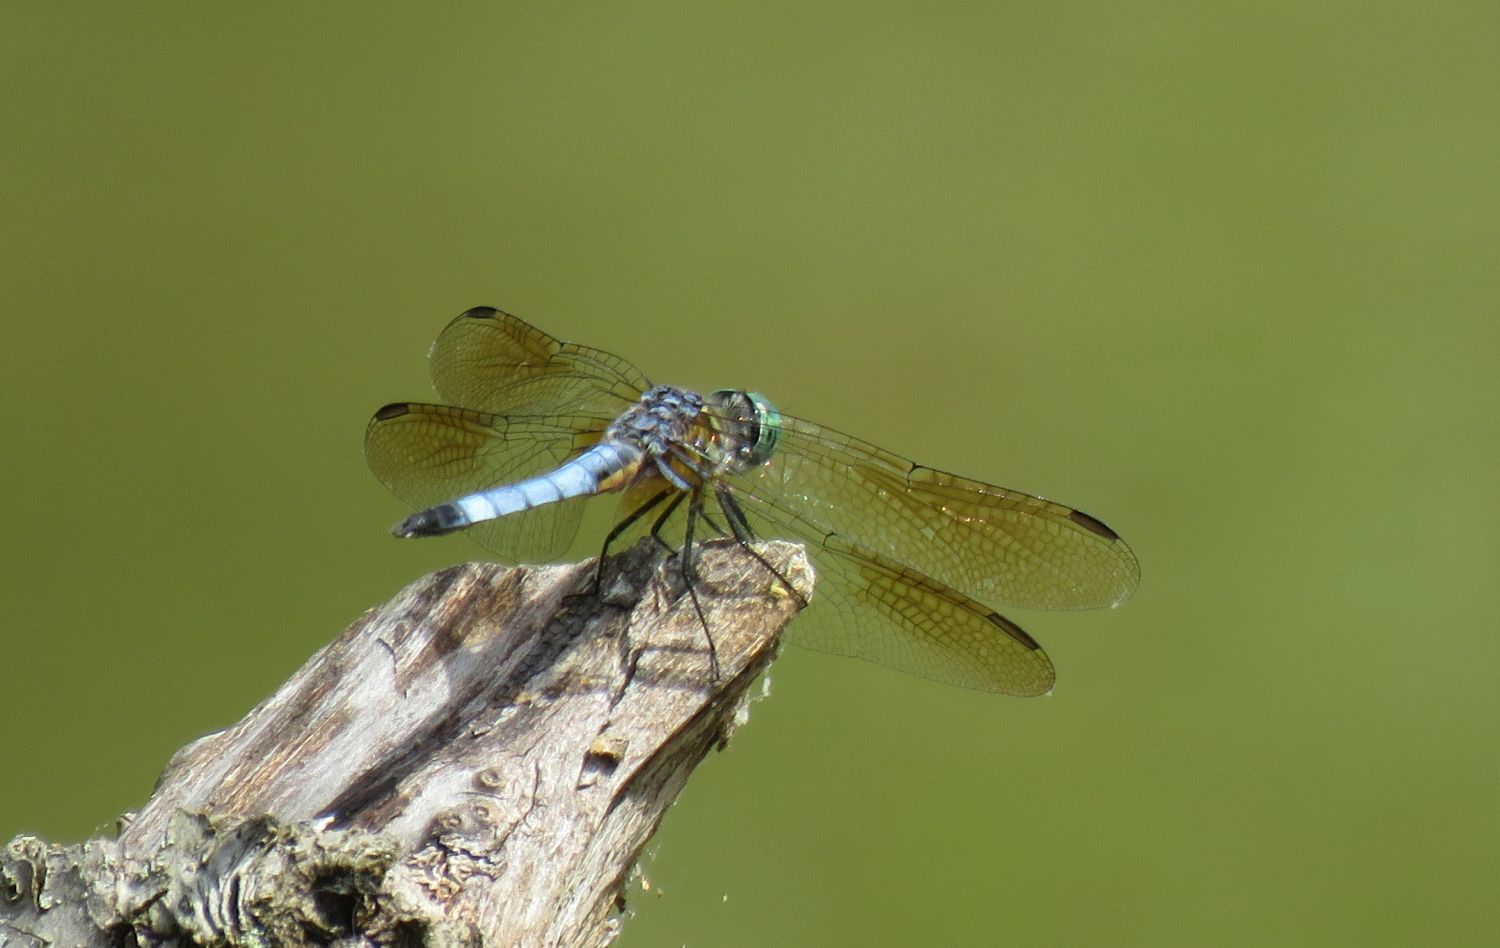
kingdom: Animalia
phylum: Arthropoda
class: Insecta
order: Odonata
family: Libellulidae
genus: Pachydiplax
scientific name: Pachydiplax longipennis
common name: Blue dasher
